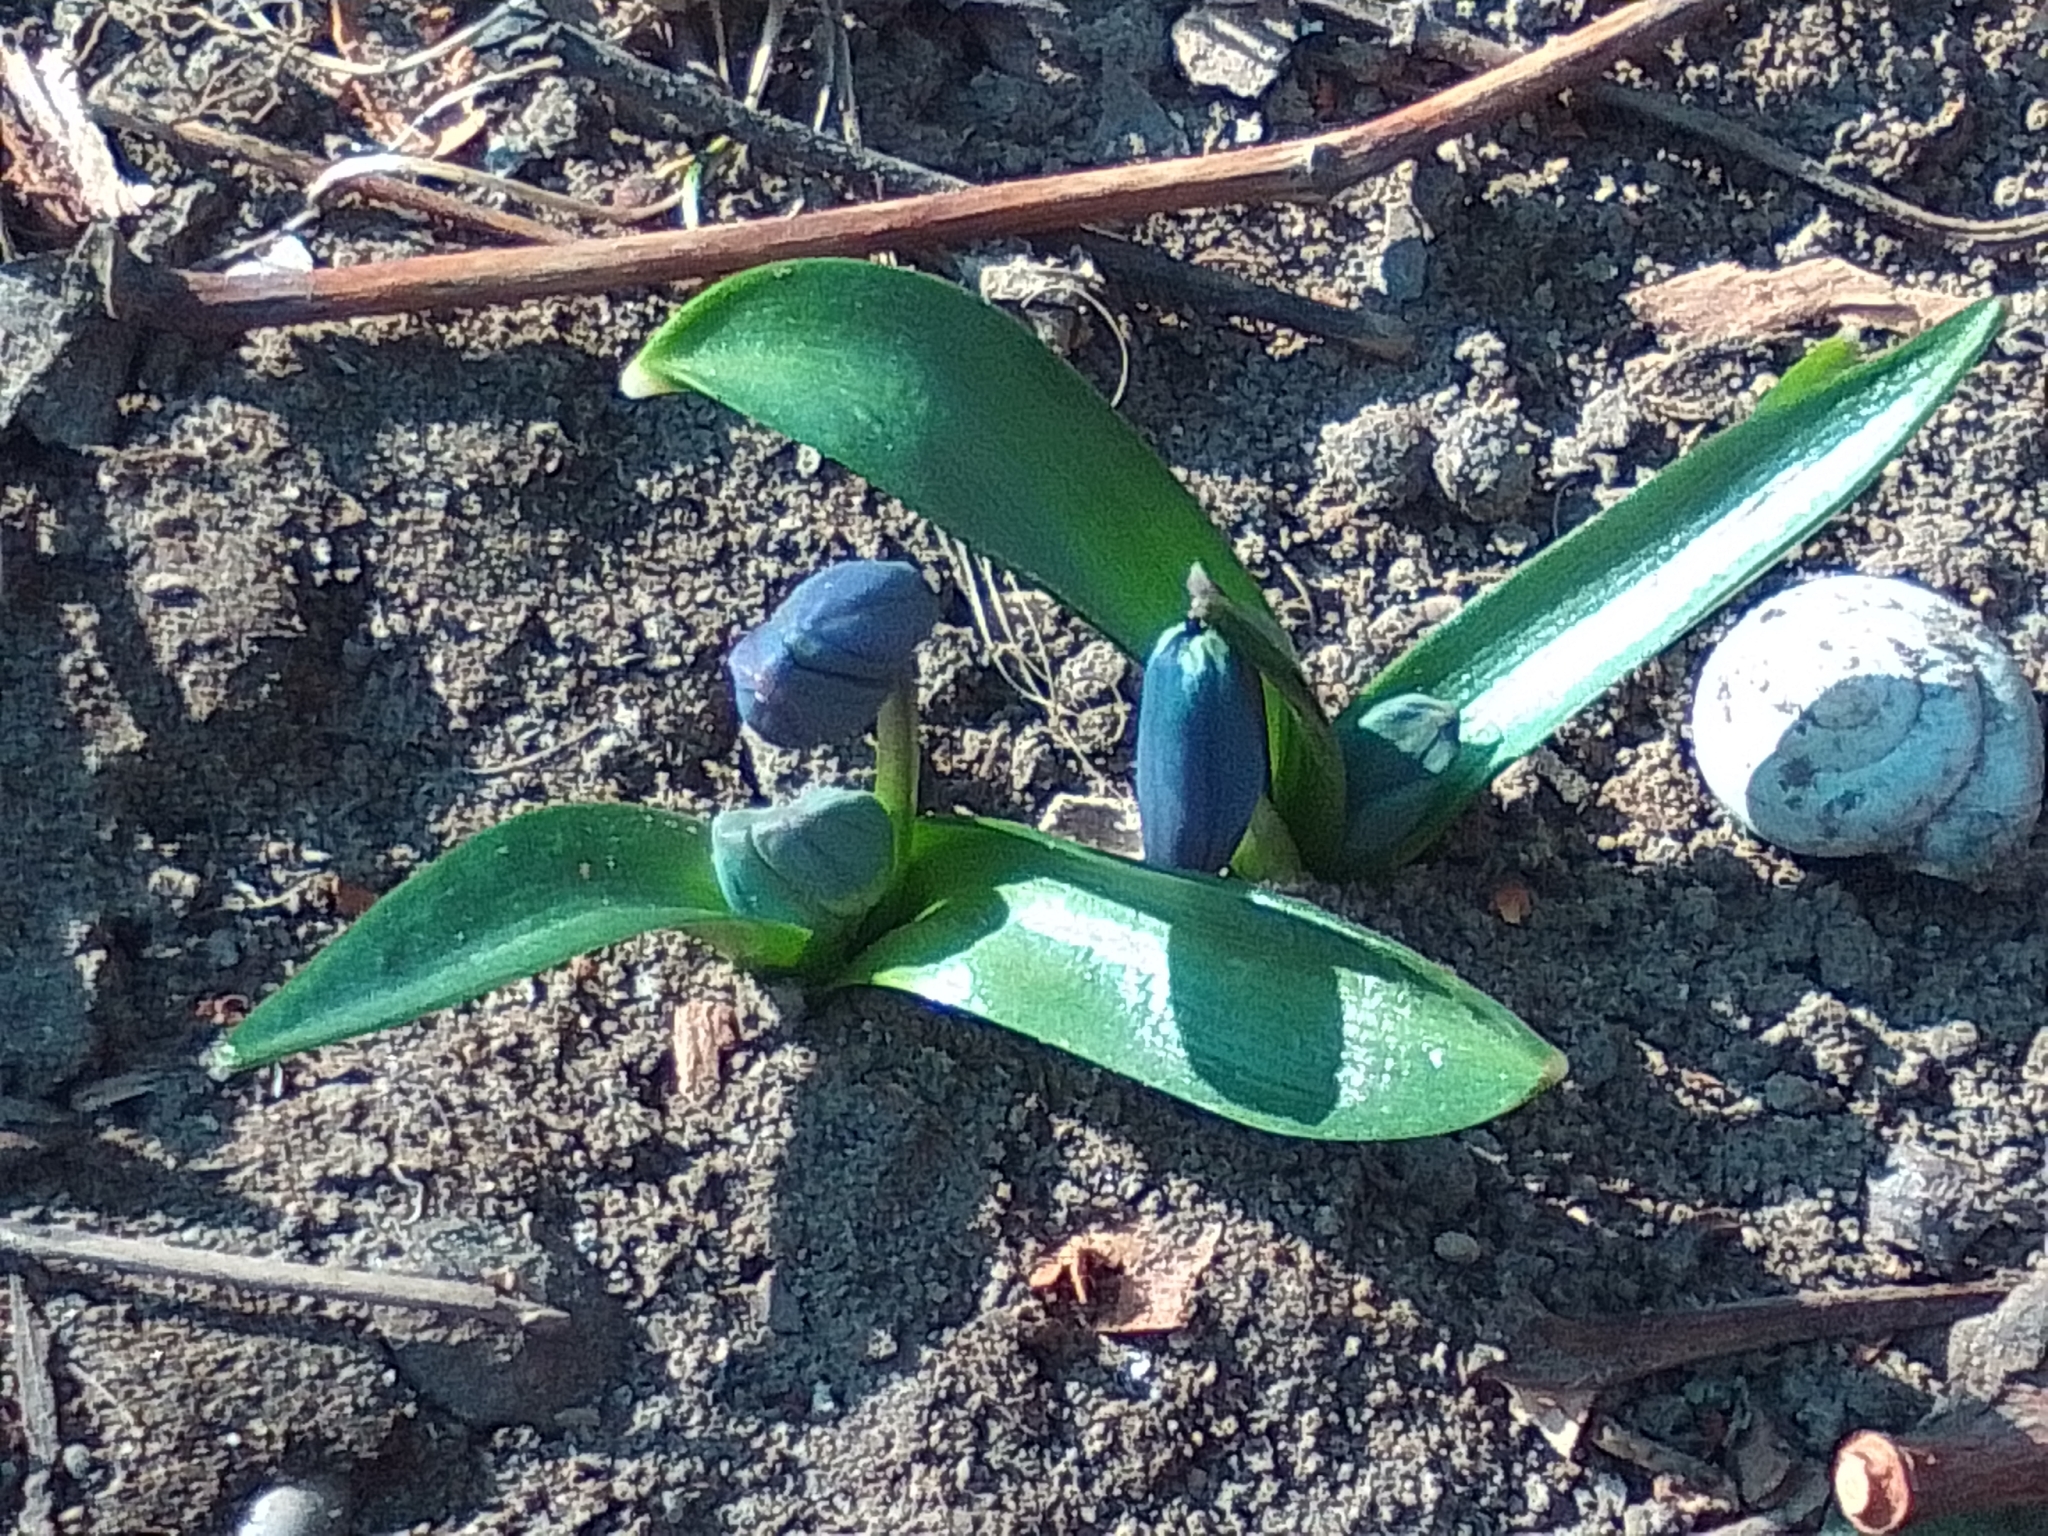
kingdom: Plantae
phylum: Tracheophyta
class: Liliopsida
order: Asparagales
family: Asparagaceae
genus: Scilla
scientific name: Scilla siberica
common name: Siberian squill
